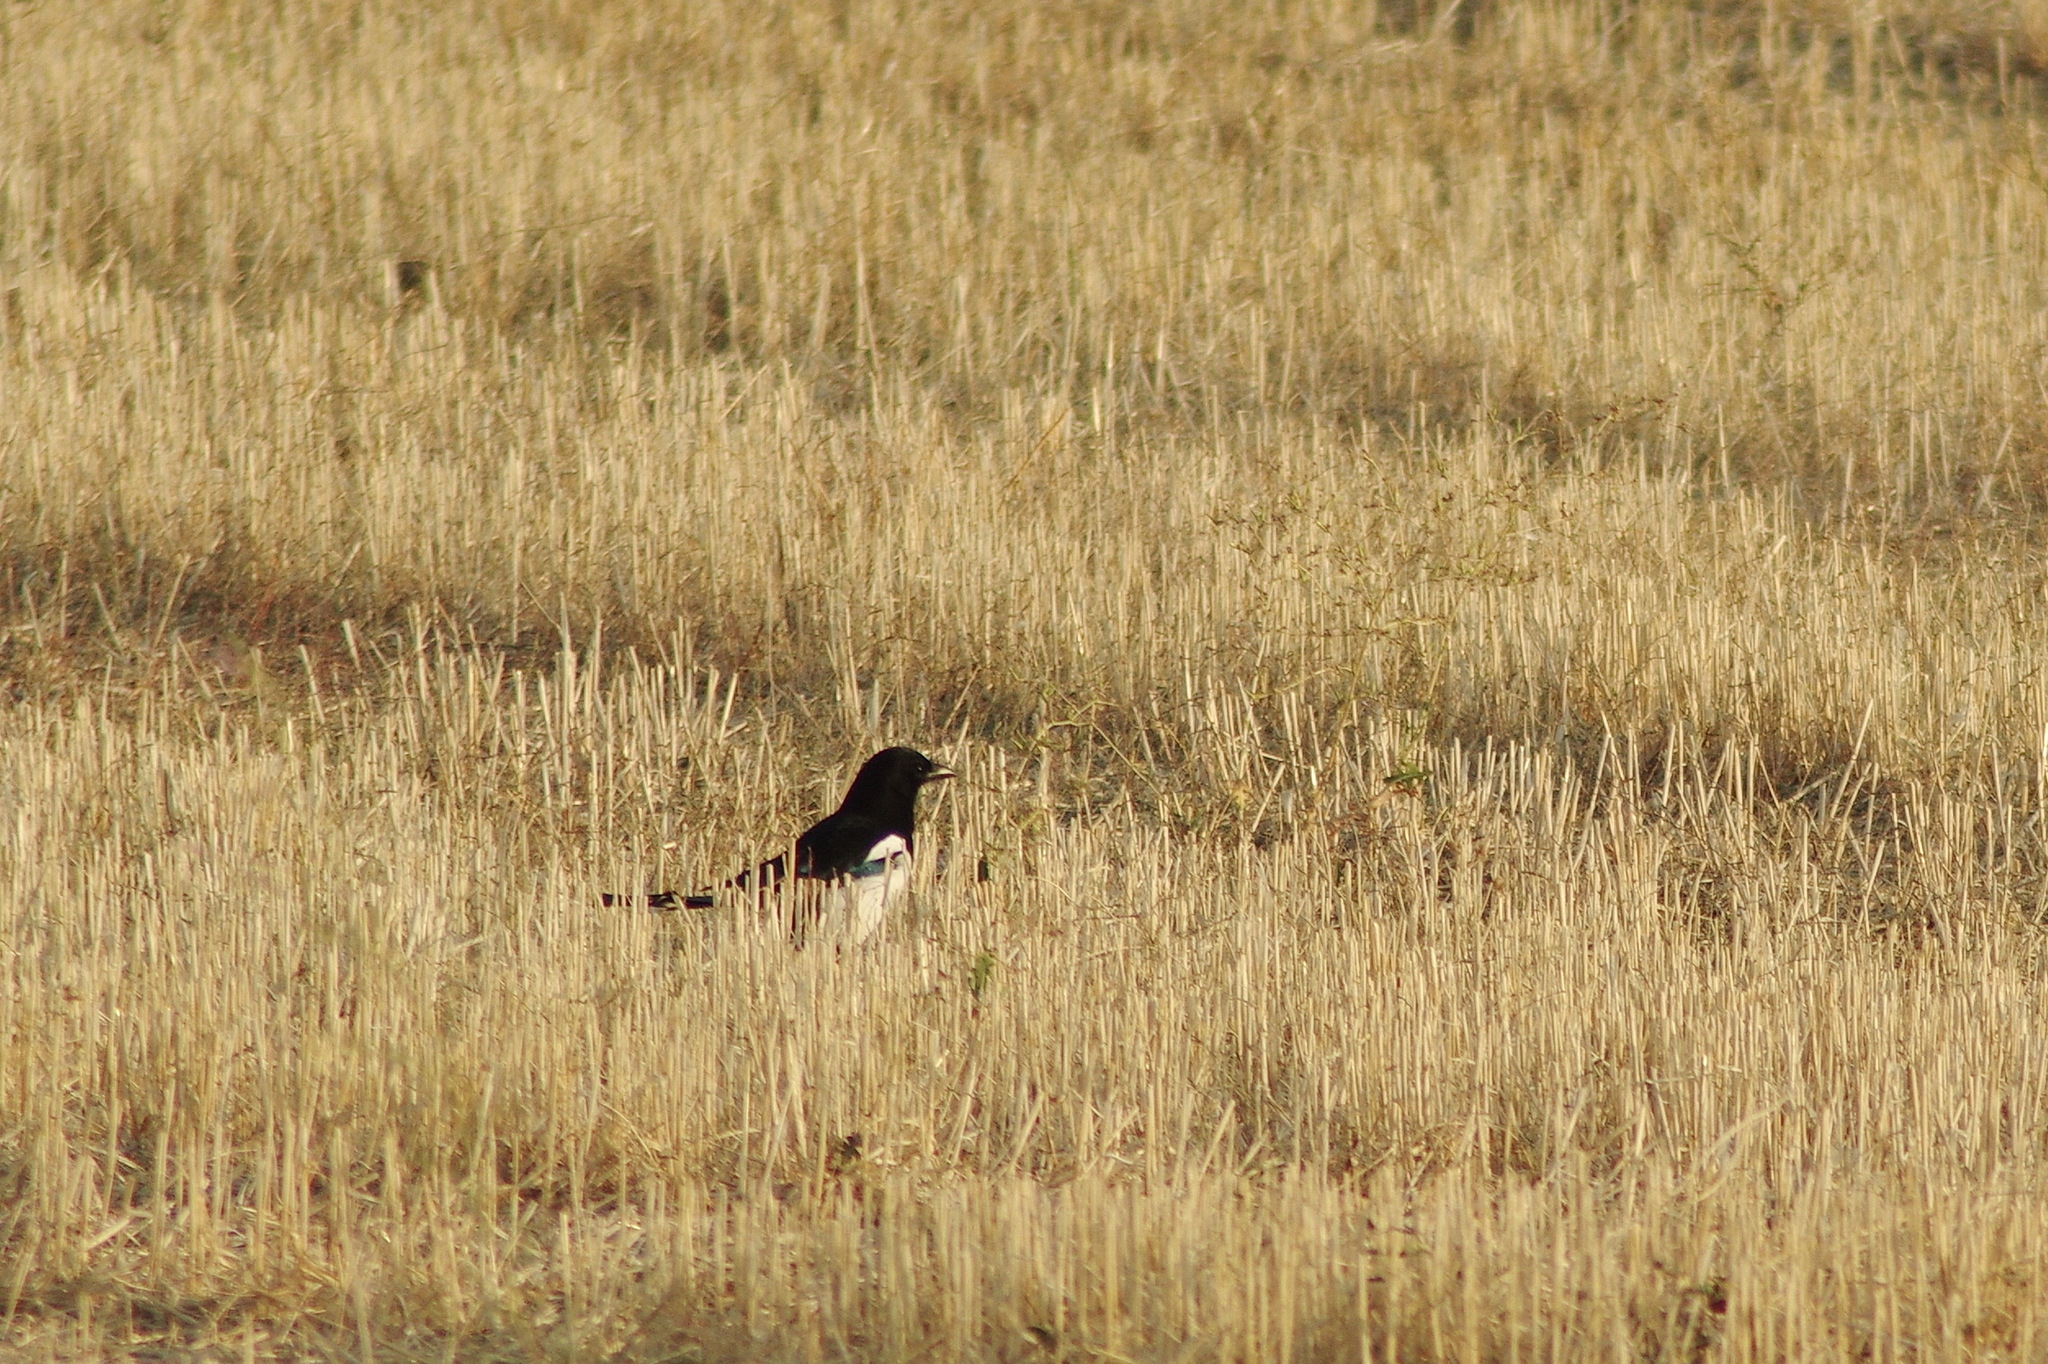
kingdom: Animalia
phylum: Chordata
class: Aves
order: Passeriformes
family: Corvidae
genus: Pica
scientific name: Pica pica
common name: Eurasian magpie
